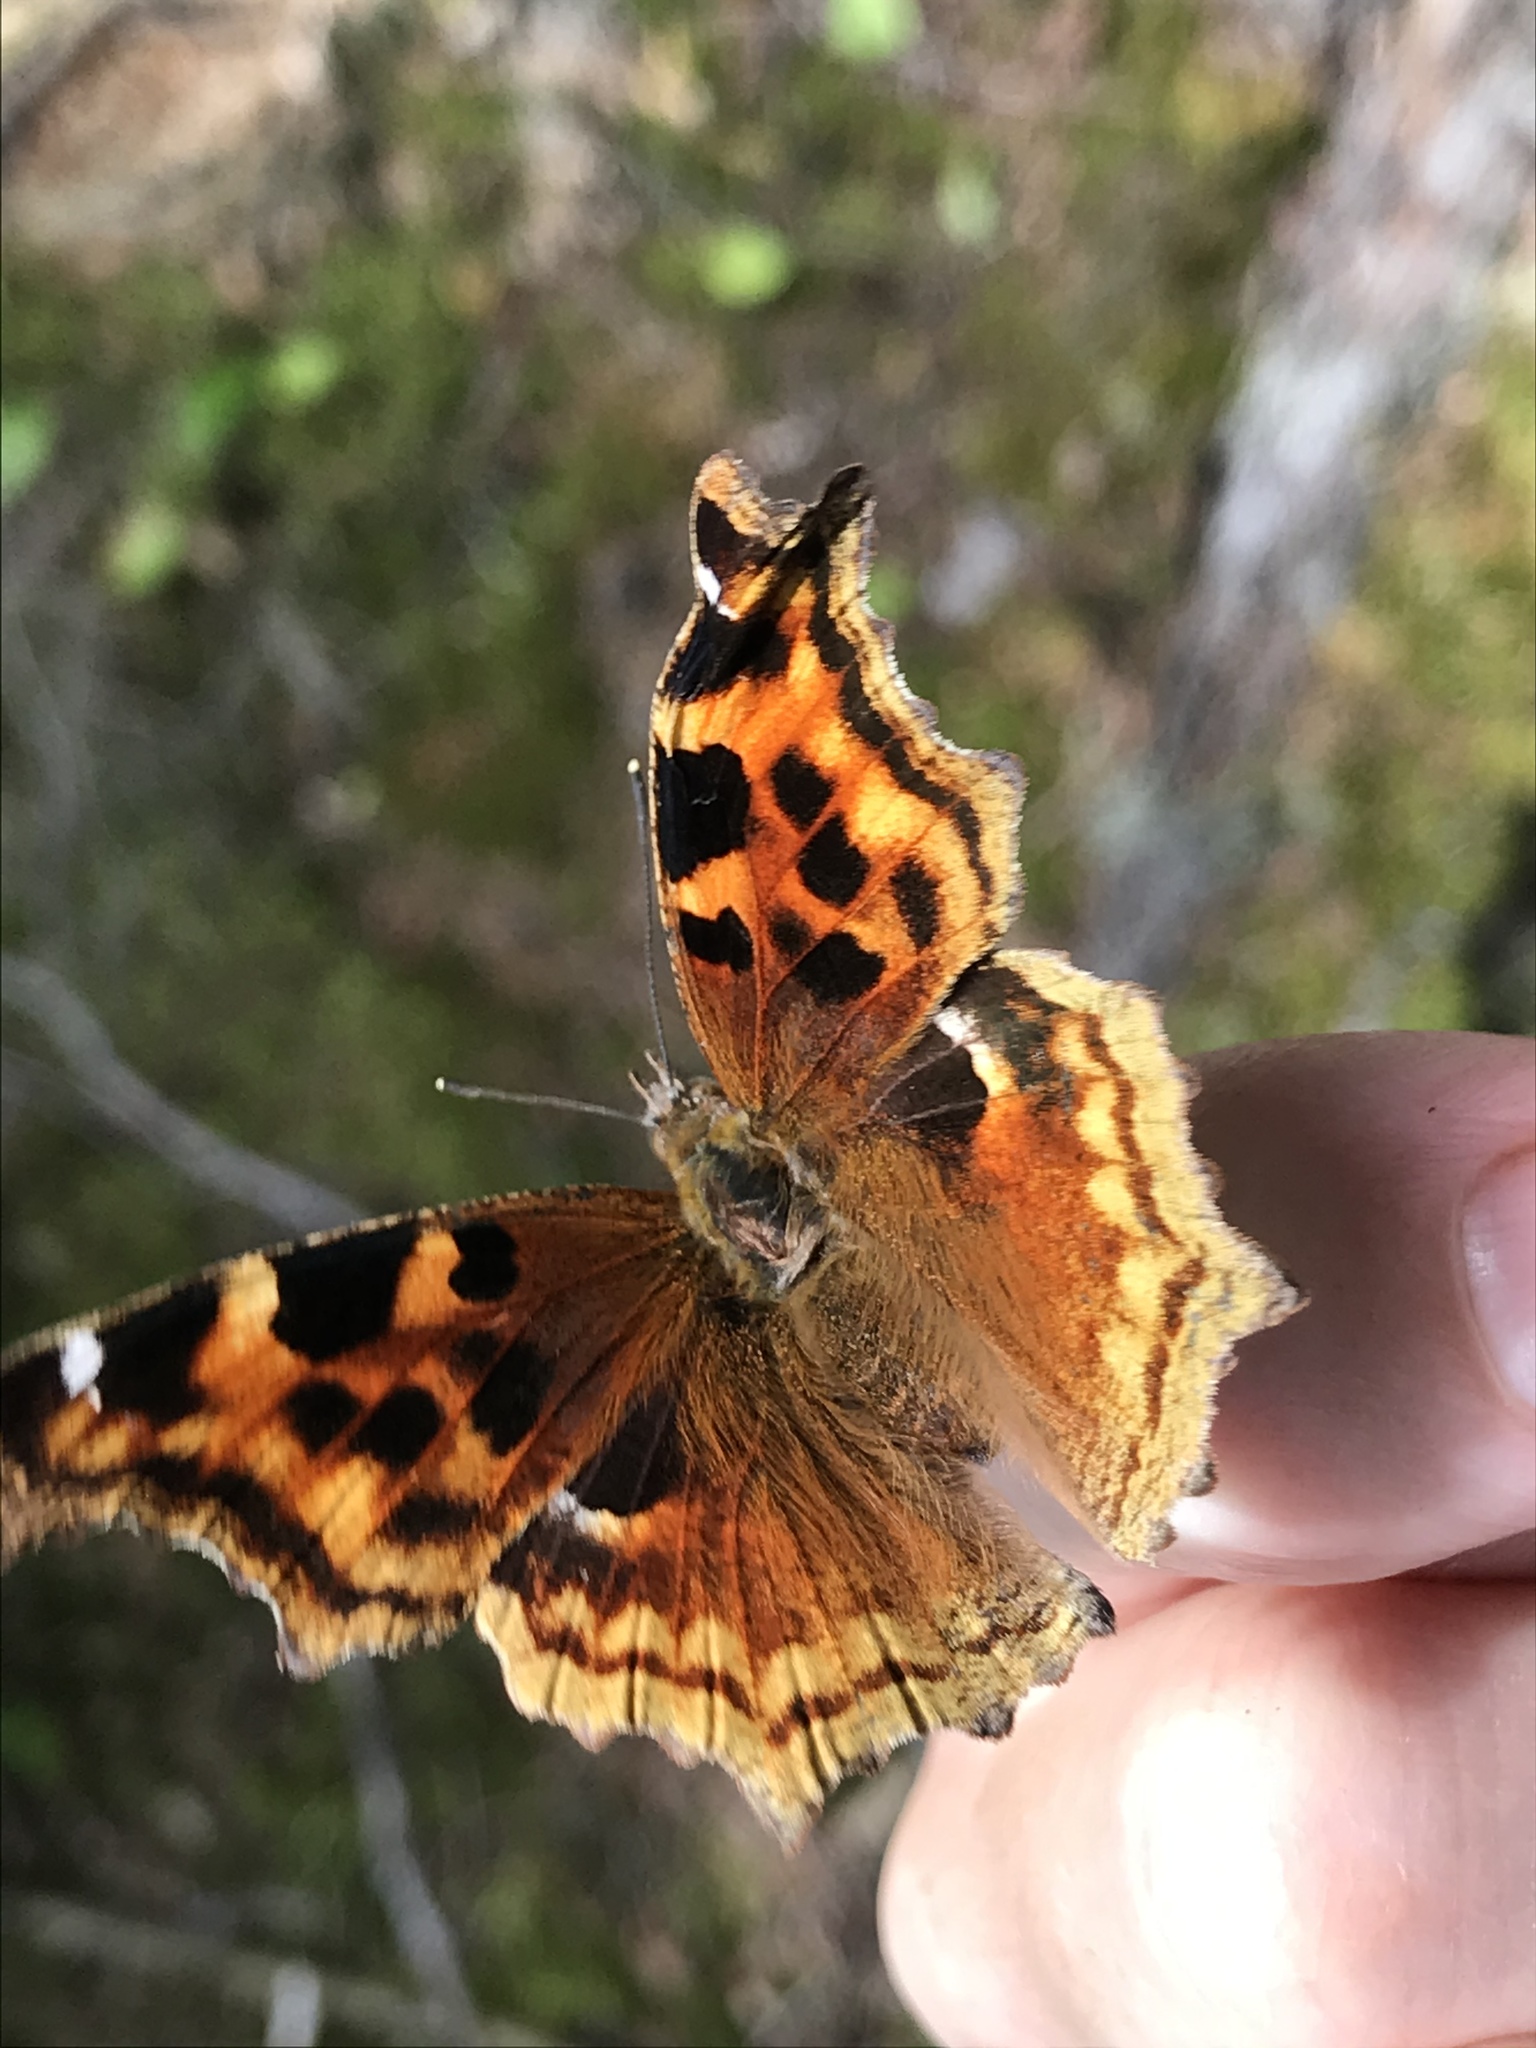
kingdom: Animalia
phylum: Arthropoda
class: Insecta
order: Lepidoptera
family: Nymphalidae
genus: Polygonia
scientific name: Polygonia vaualbum
